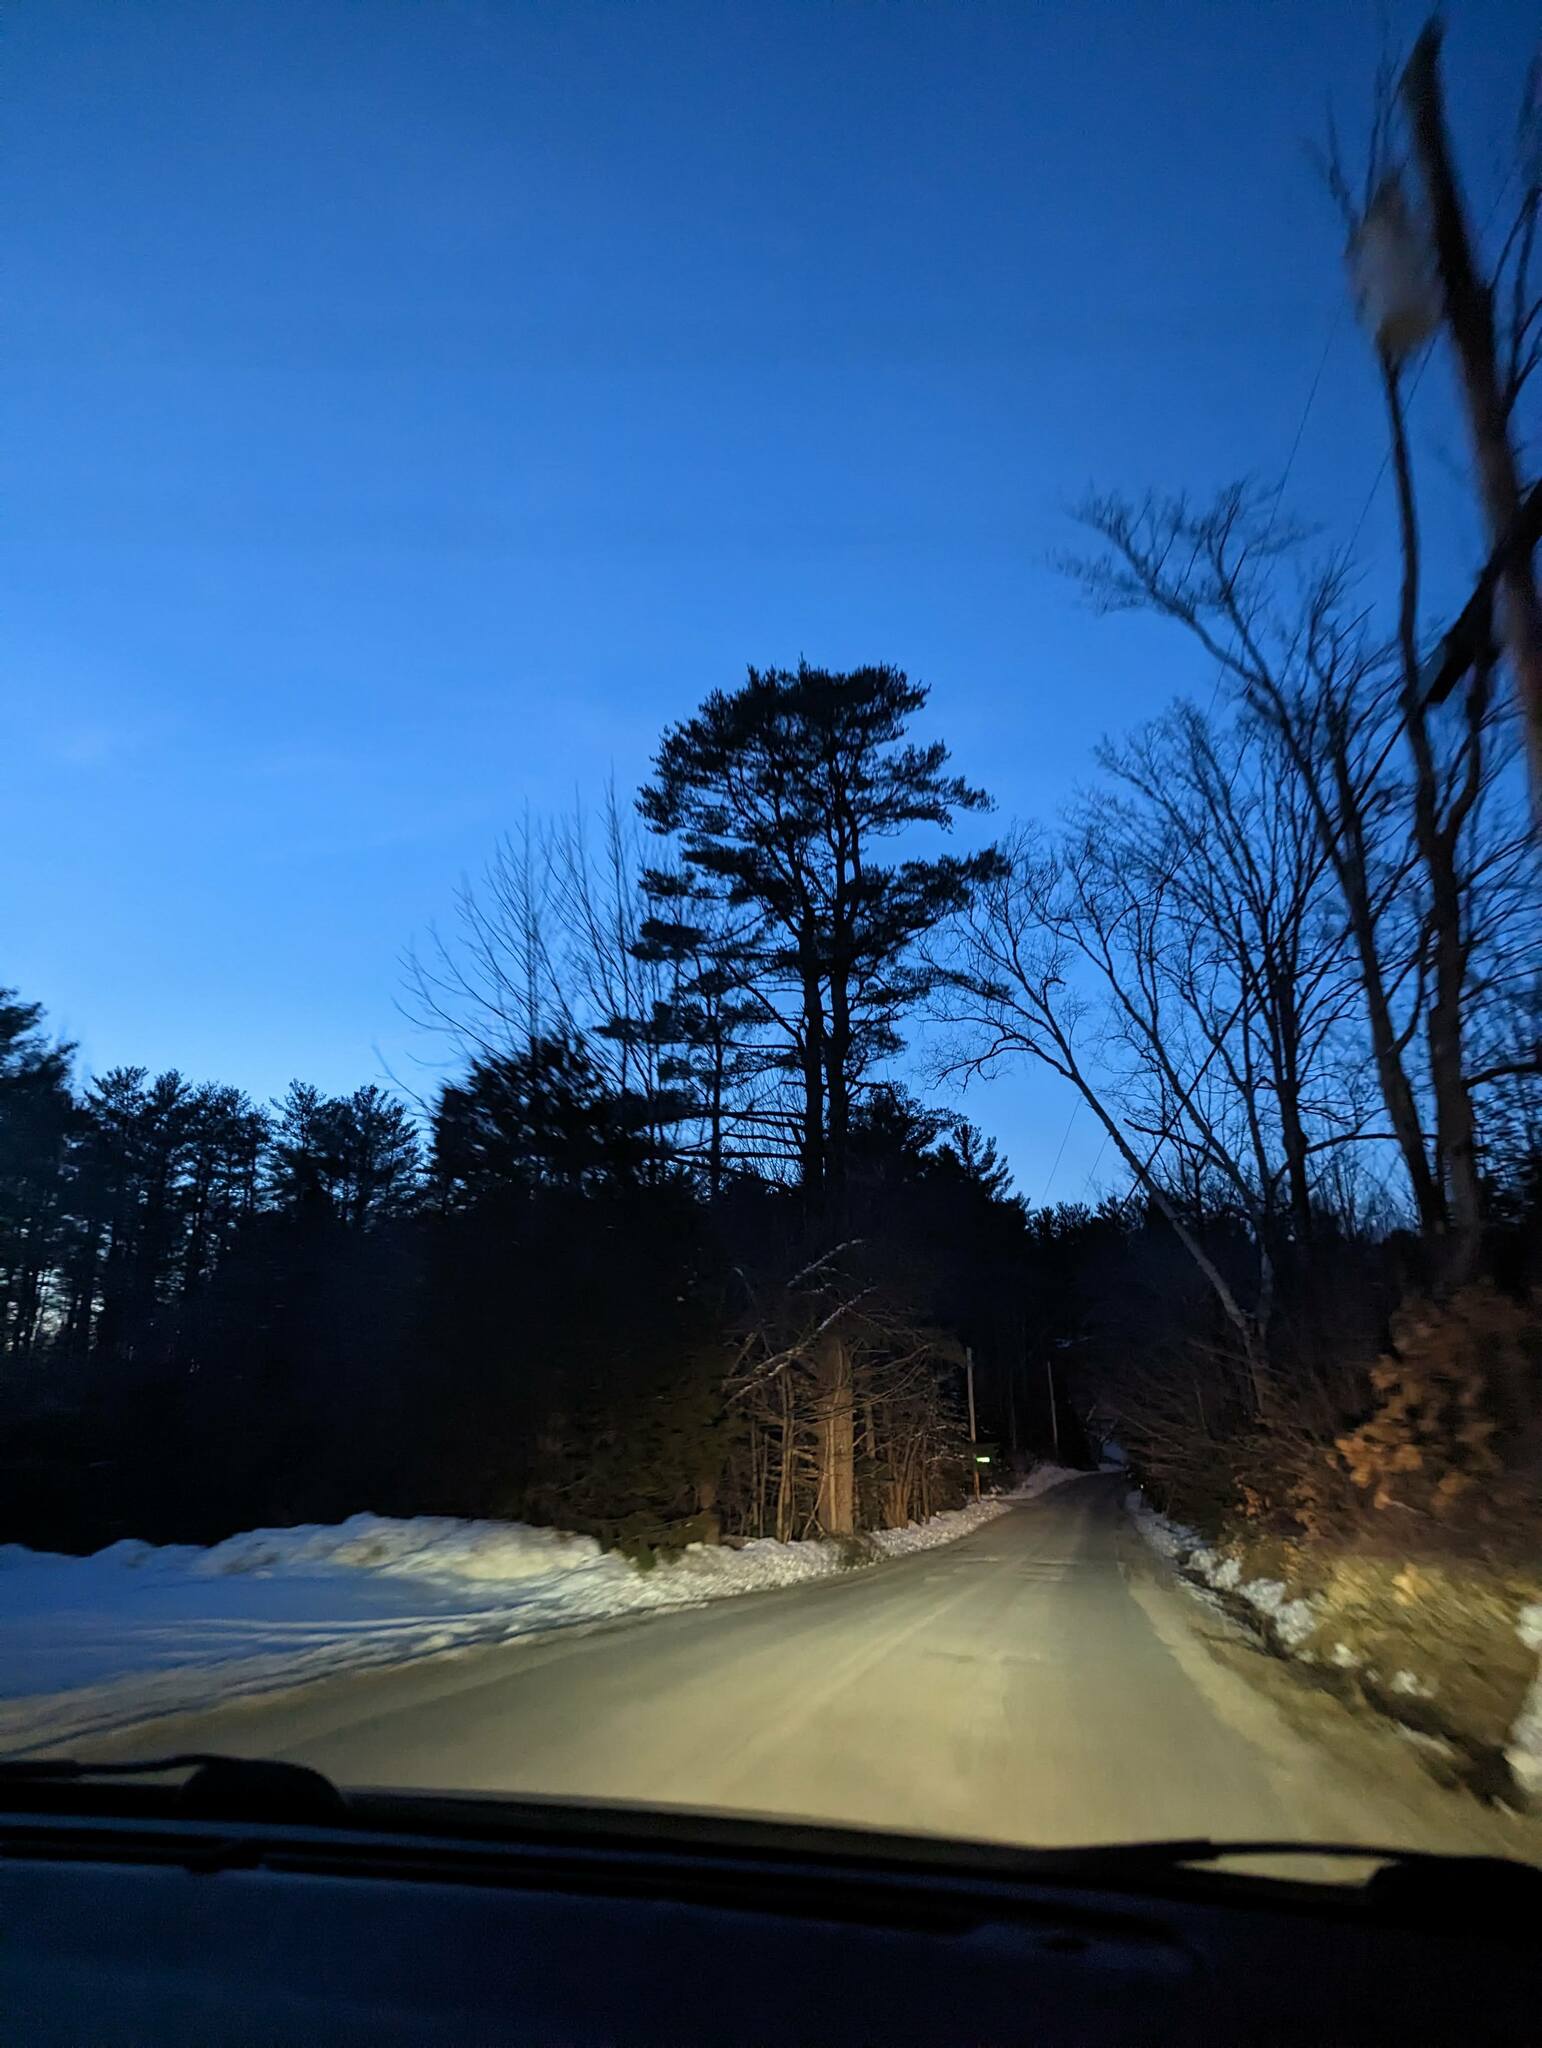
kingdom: Plantae
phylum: Tracheophyta
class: Pinopsida
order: Pinales
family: Pinaceae
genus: Pinus
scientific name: Pinus strobus
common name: Weymouth pine
